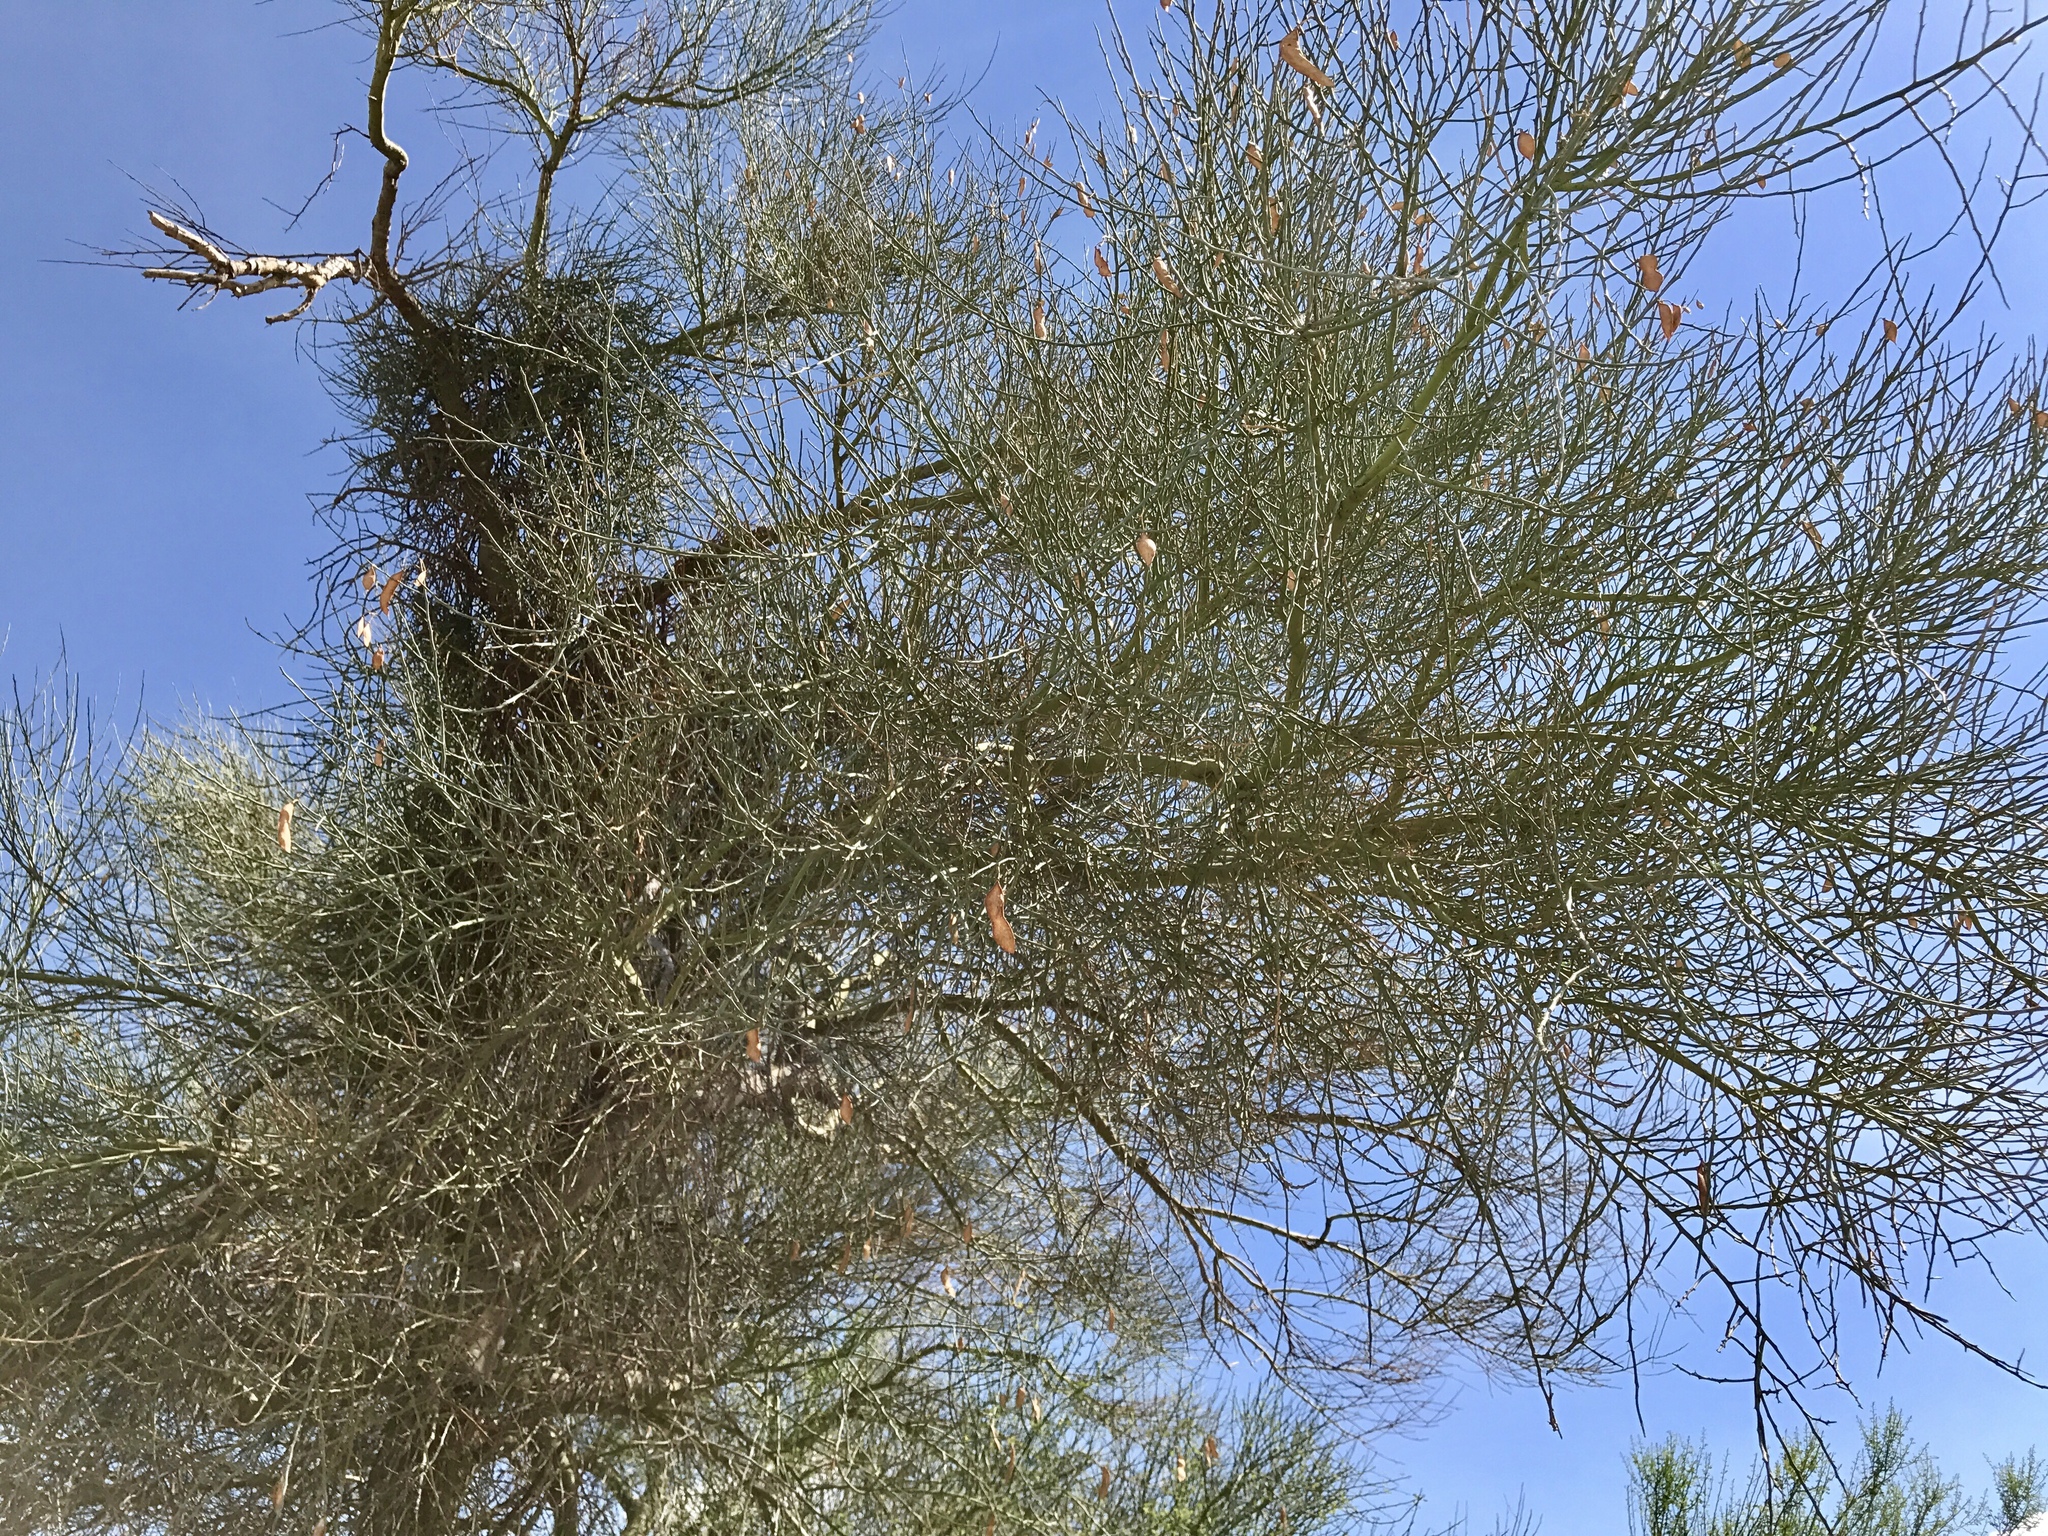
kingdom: Plantae
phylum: Tracheophyta
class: Magnoliopsida
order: Fabales
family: Fabaceae
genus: Parkinsonia
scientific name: Parkinsonia florida
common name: Blue paloverde
